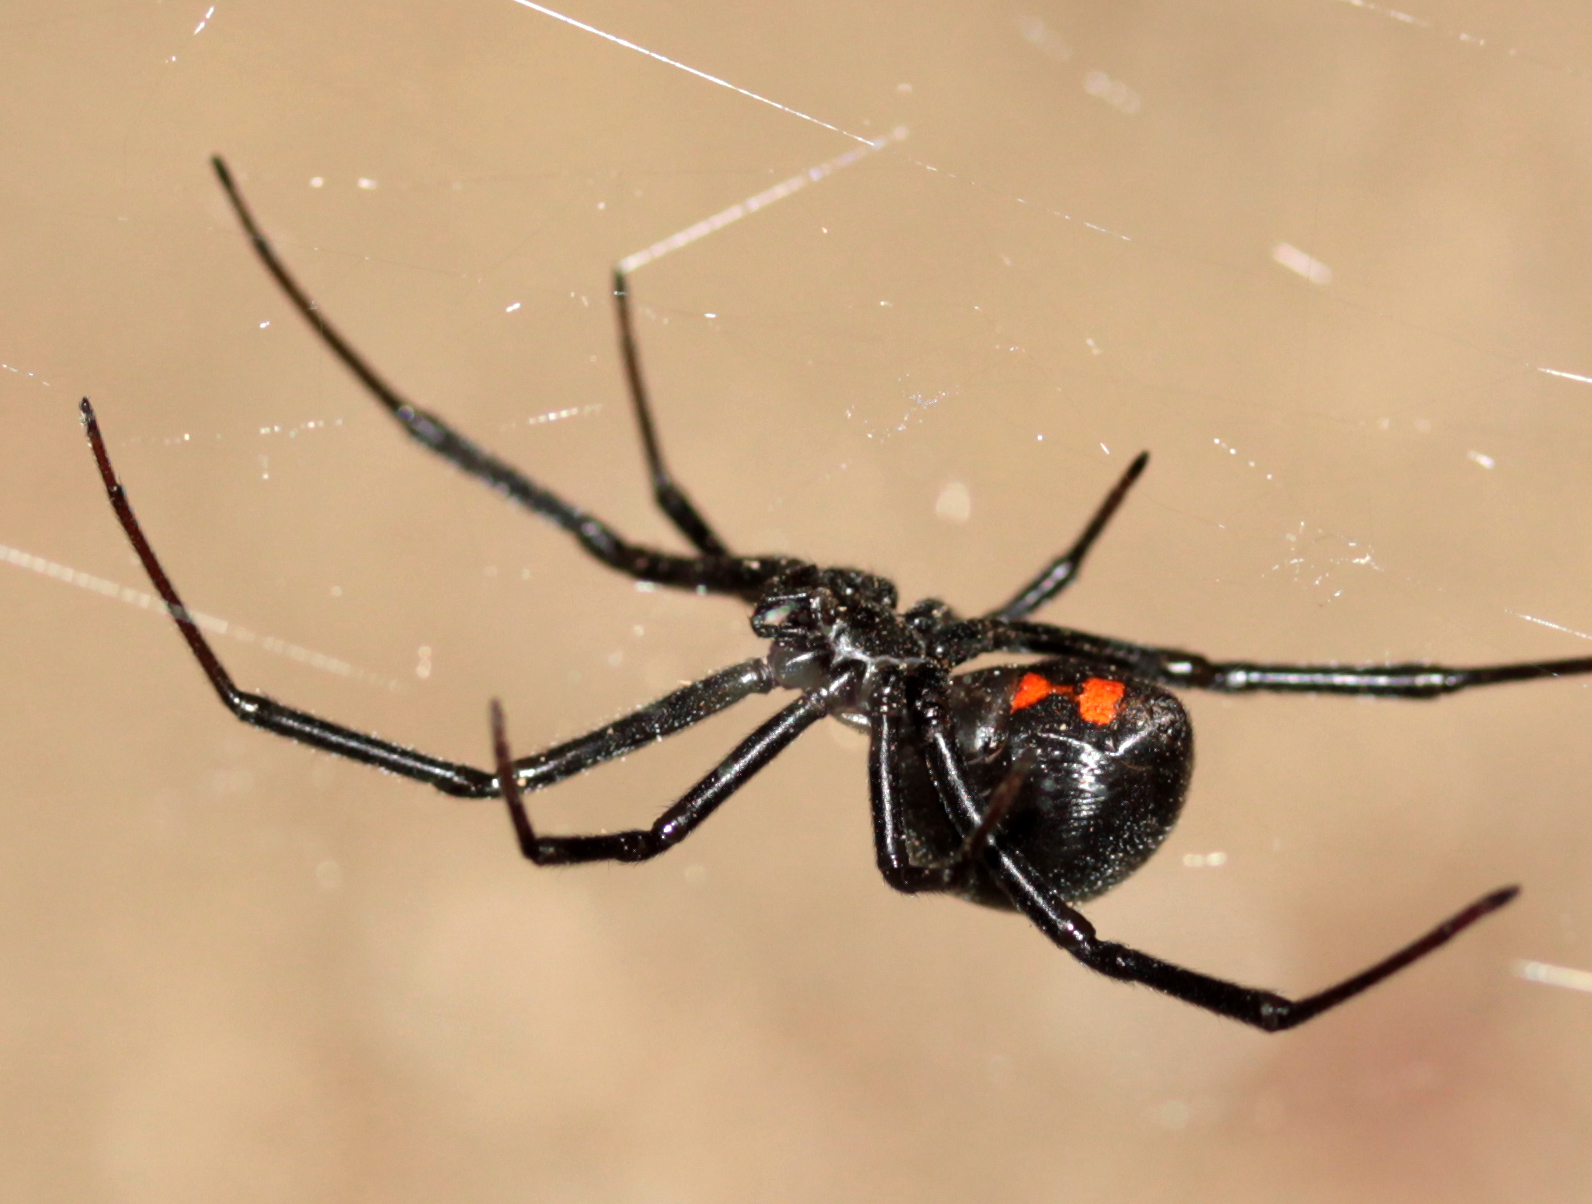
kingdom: Animalia
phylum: Arthropoda
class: Arachnida
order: Araneae
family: Theridiidae
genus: Latrodectus
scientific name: Latrodectus hesperus
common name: Western black widow
